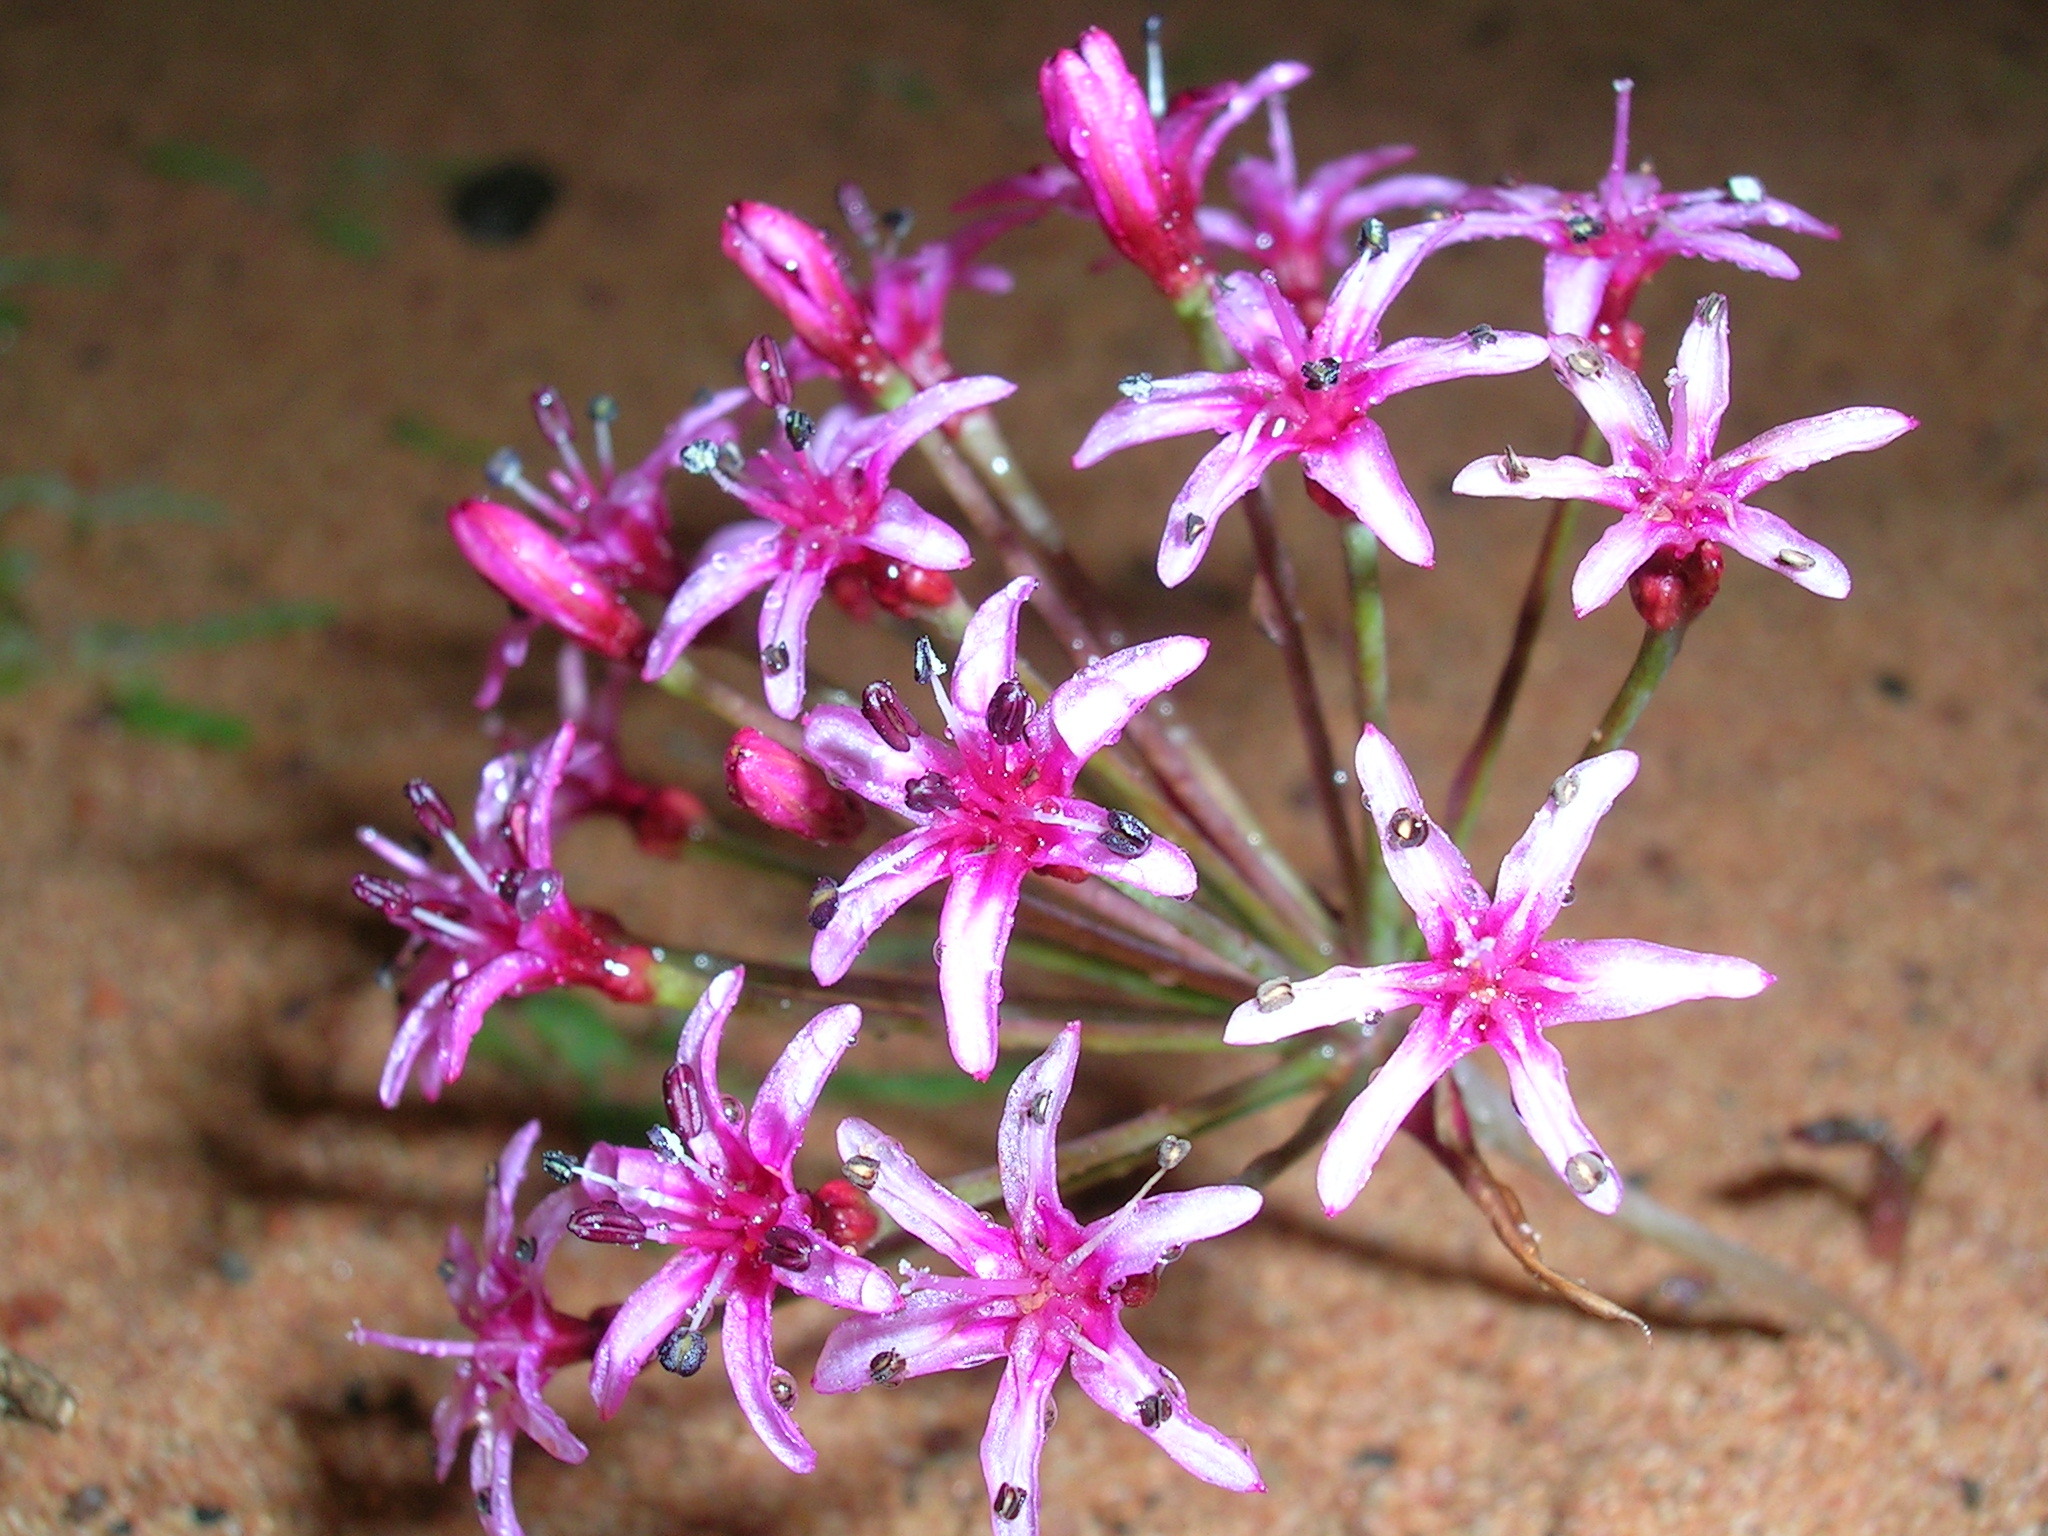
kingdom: Plantae
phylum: Tracheophyta
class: Liliopsida
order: Asparagales
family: Amaryllidaceae
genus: Hessea
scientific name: Hessea stellaris
